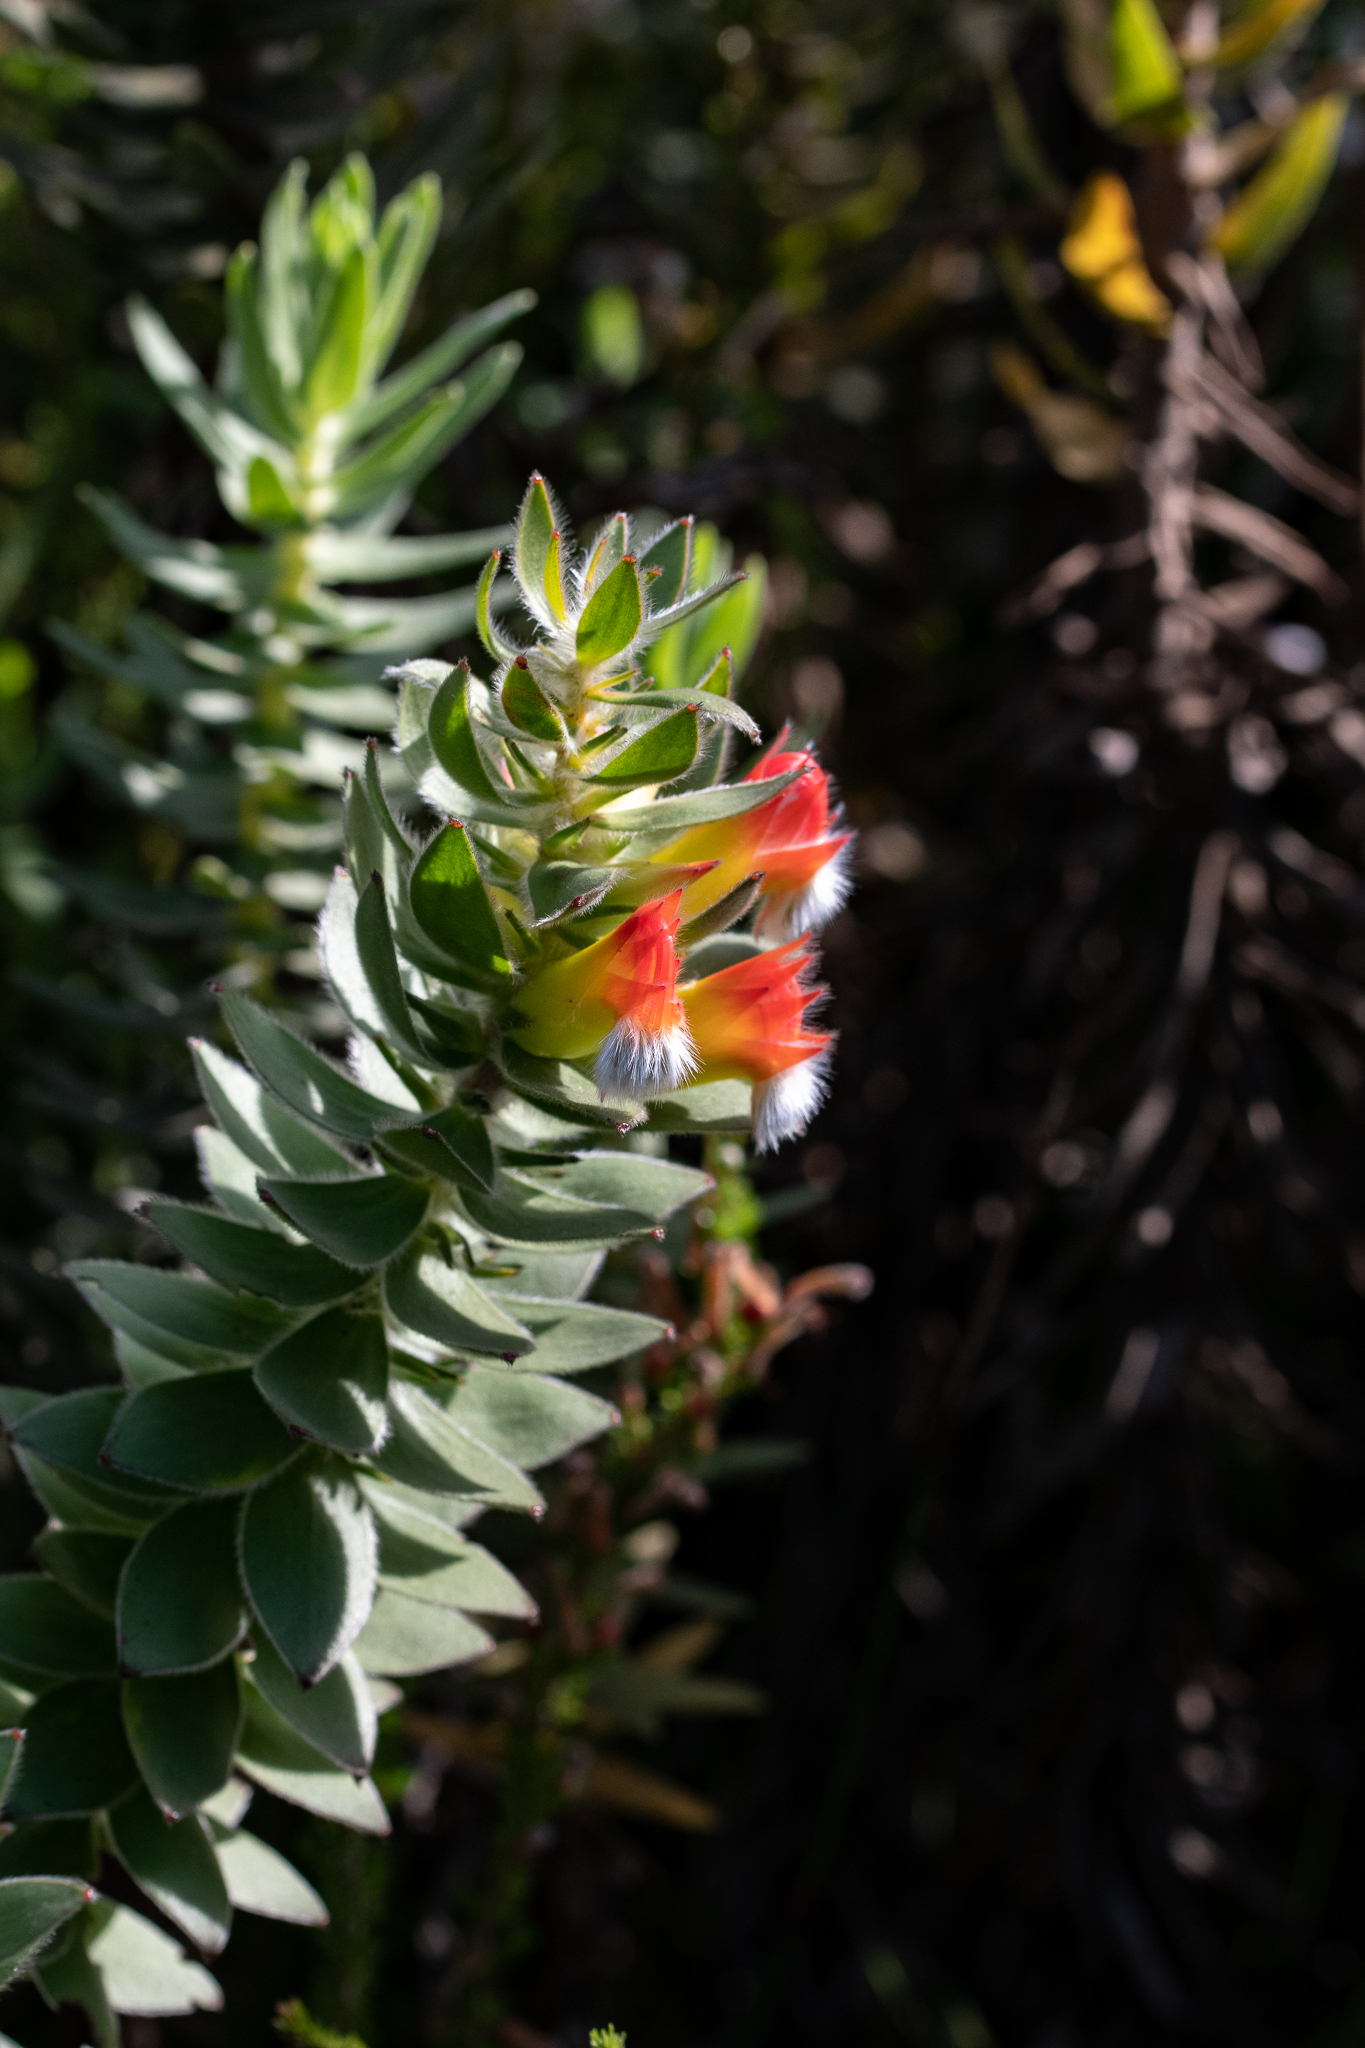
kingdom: Plantae
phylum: Tracheophyta
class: Magnoliopsida
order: Proteales
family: Proteaceae
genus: Mimetes
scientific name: Mimetes hirtus
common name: Marsh pagoda
